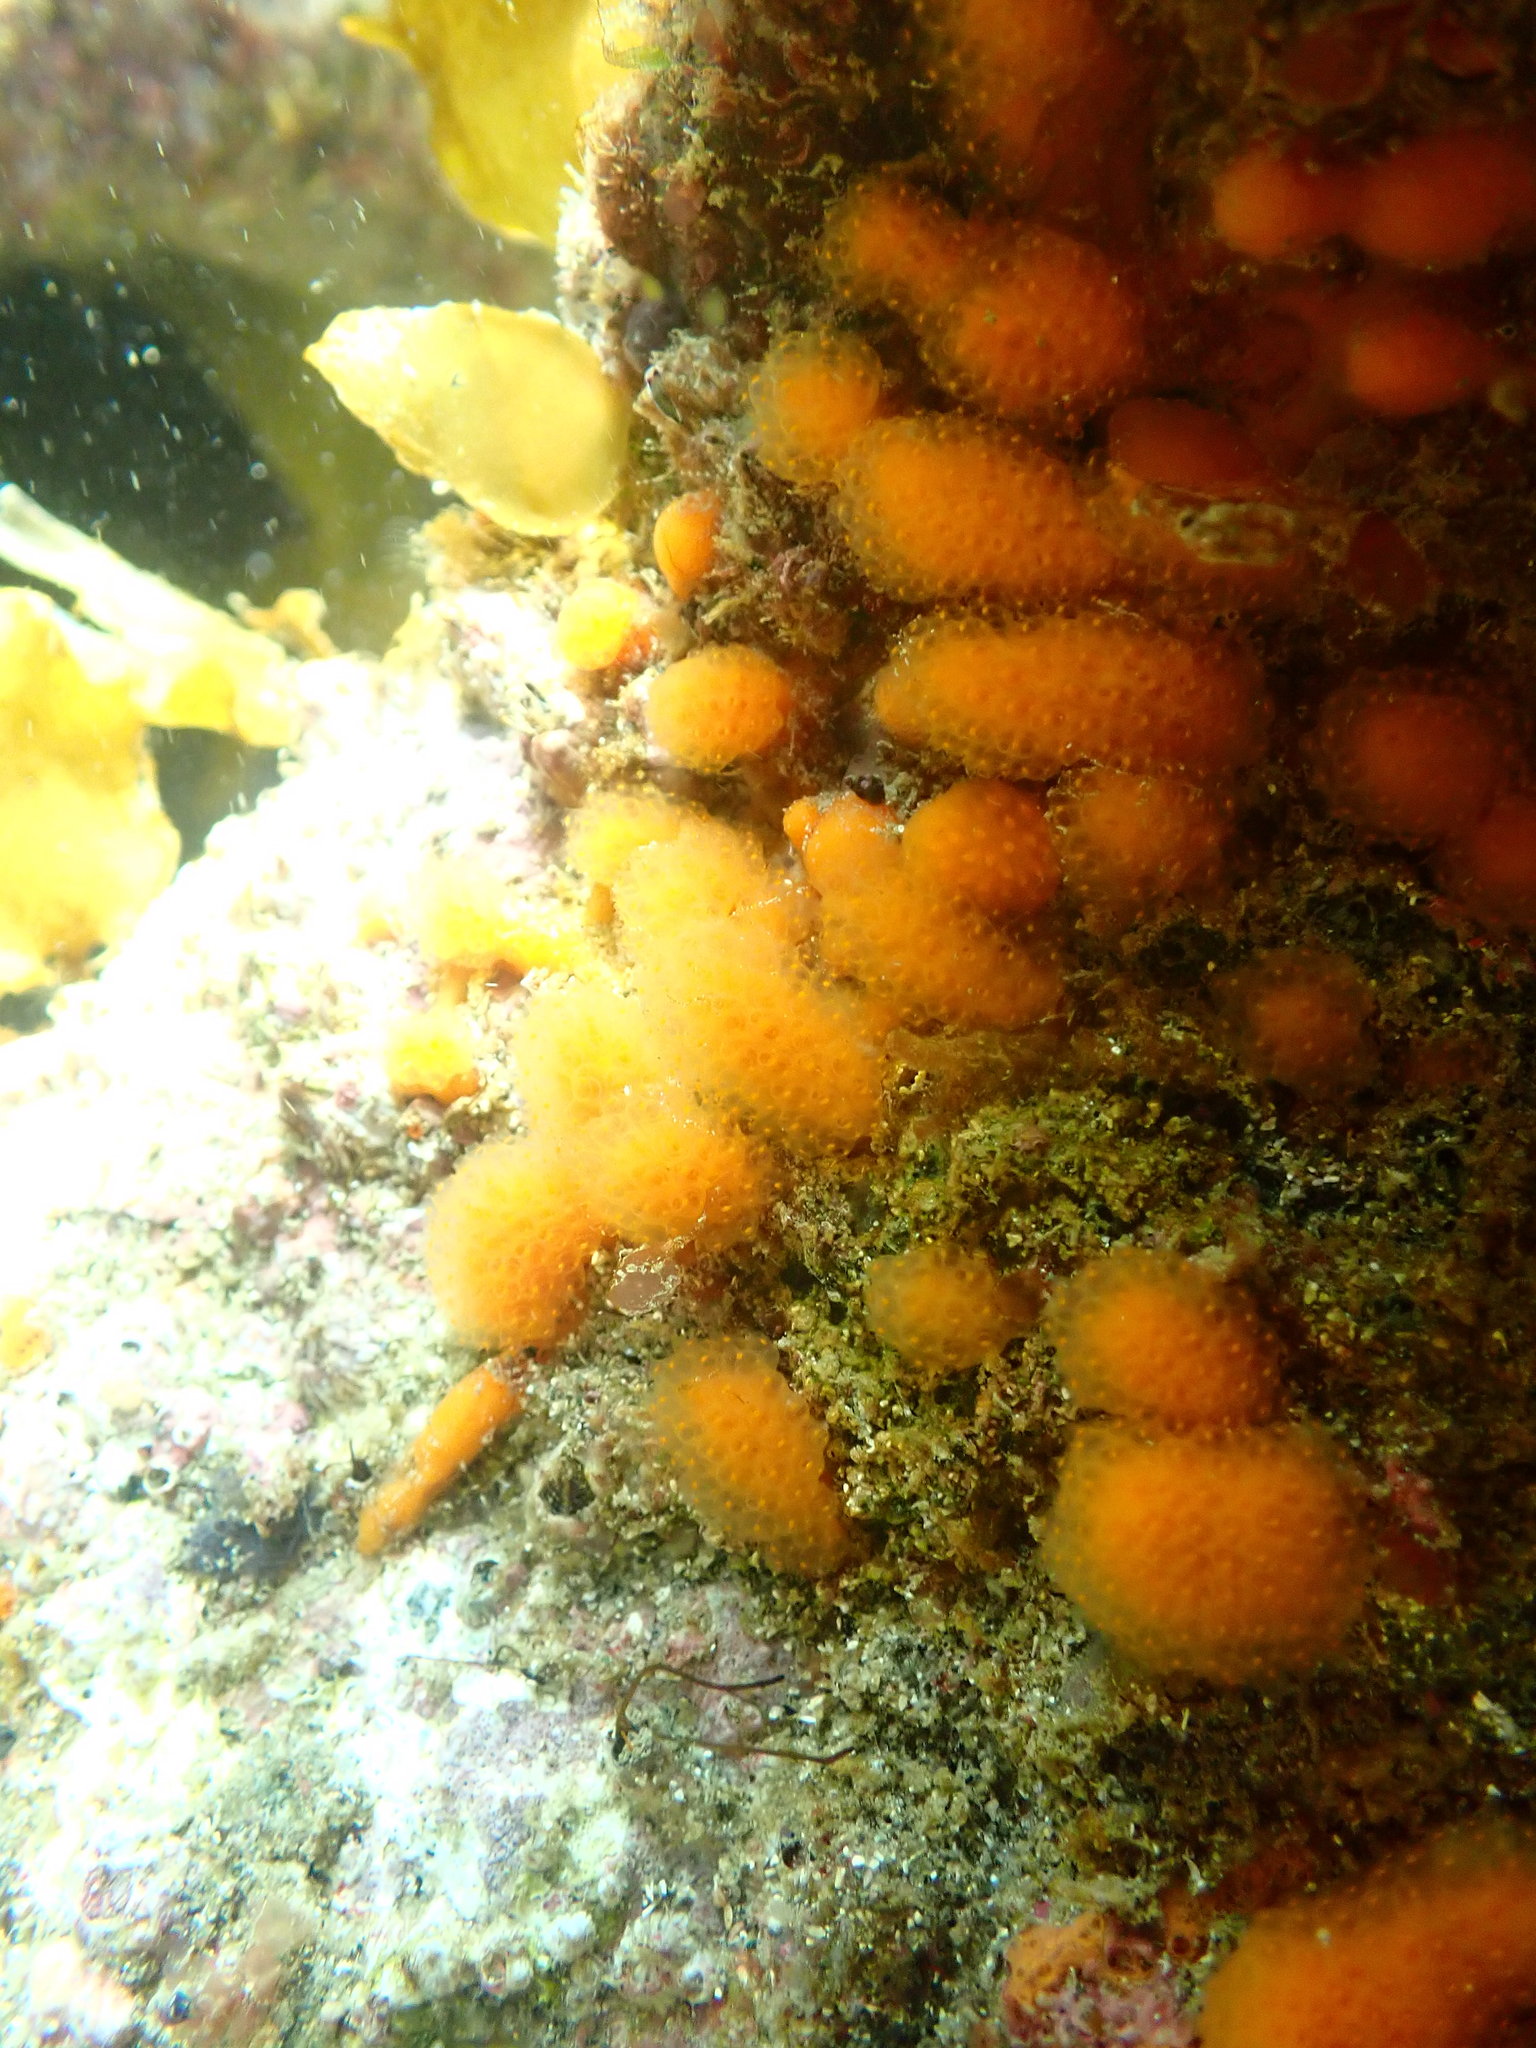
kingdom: Animalia
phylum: Chordata
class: Ascidiacea
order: Aplousobranchia
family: Pseudodistomidae
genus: Pseudodistoma
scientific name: Pseudodistoma novaezelandiae
